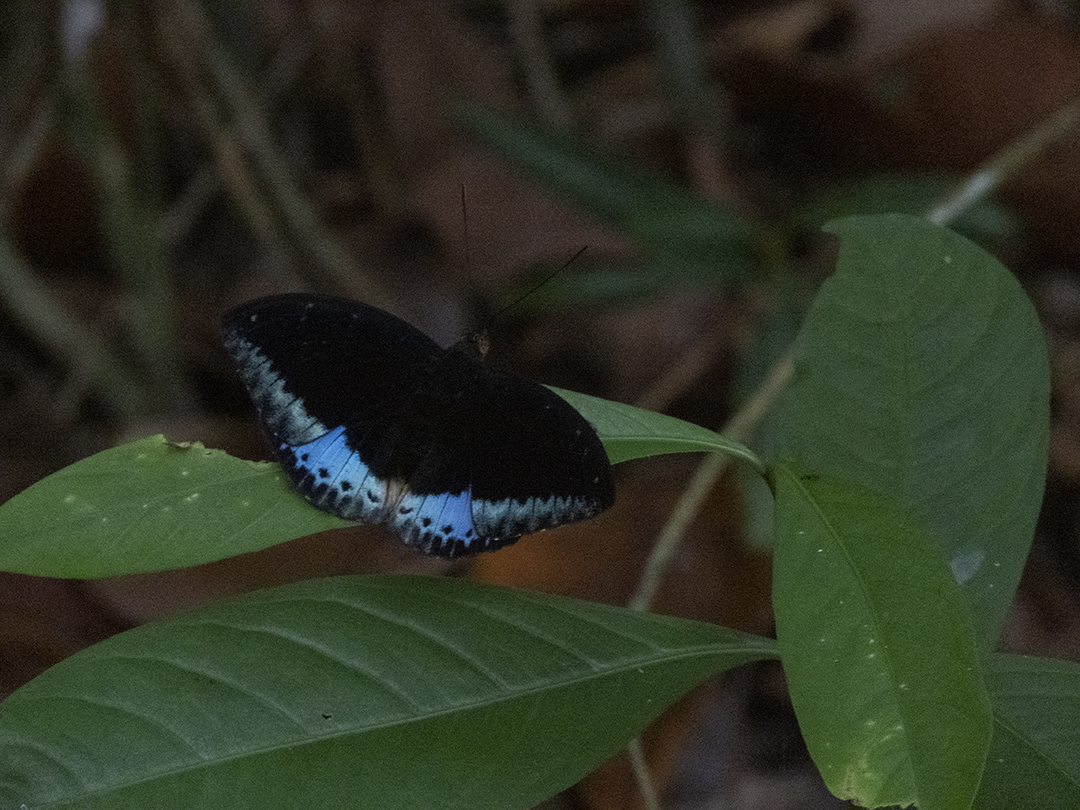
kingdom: Animalia
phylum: Arthropoda
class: Insecta
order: Lepidoptera
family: Nymphalidae
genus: Lexias
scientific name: Lexias dirtea
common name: Black-tipped archduke
